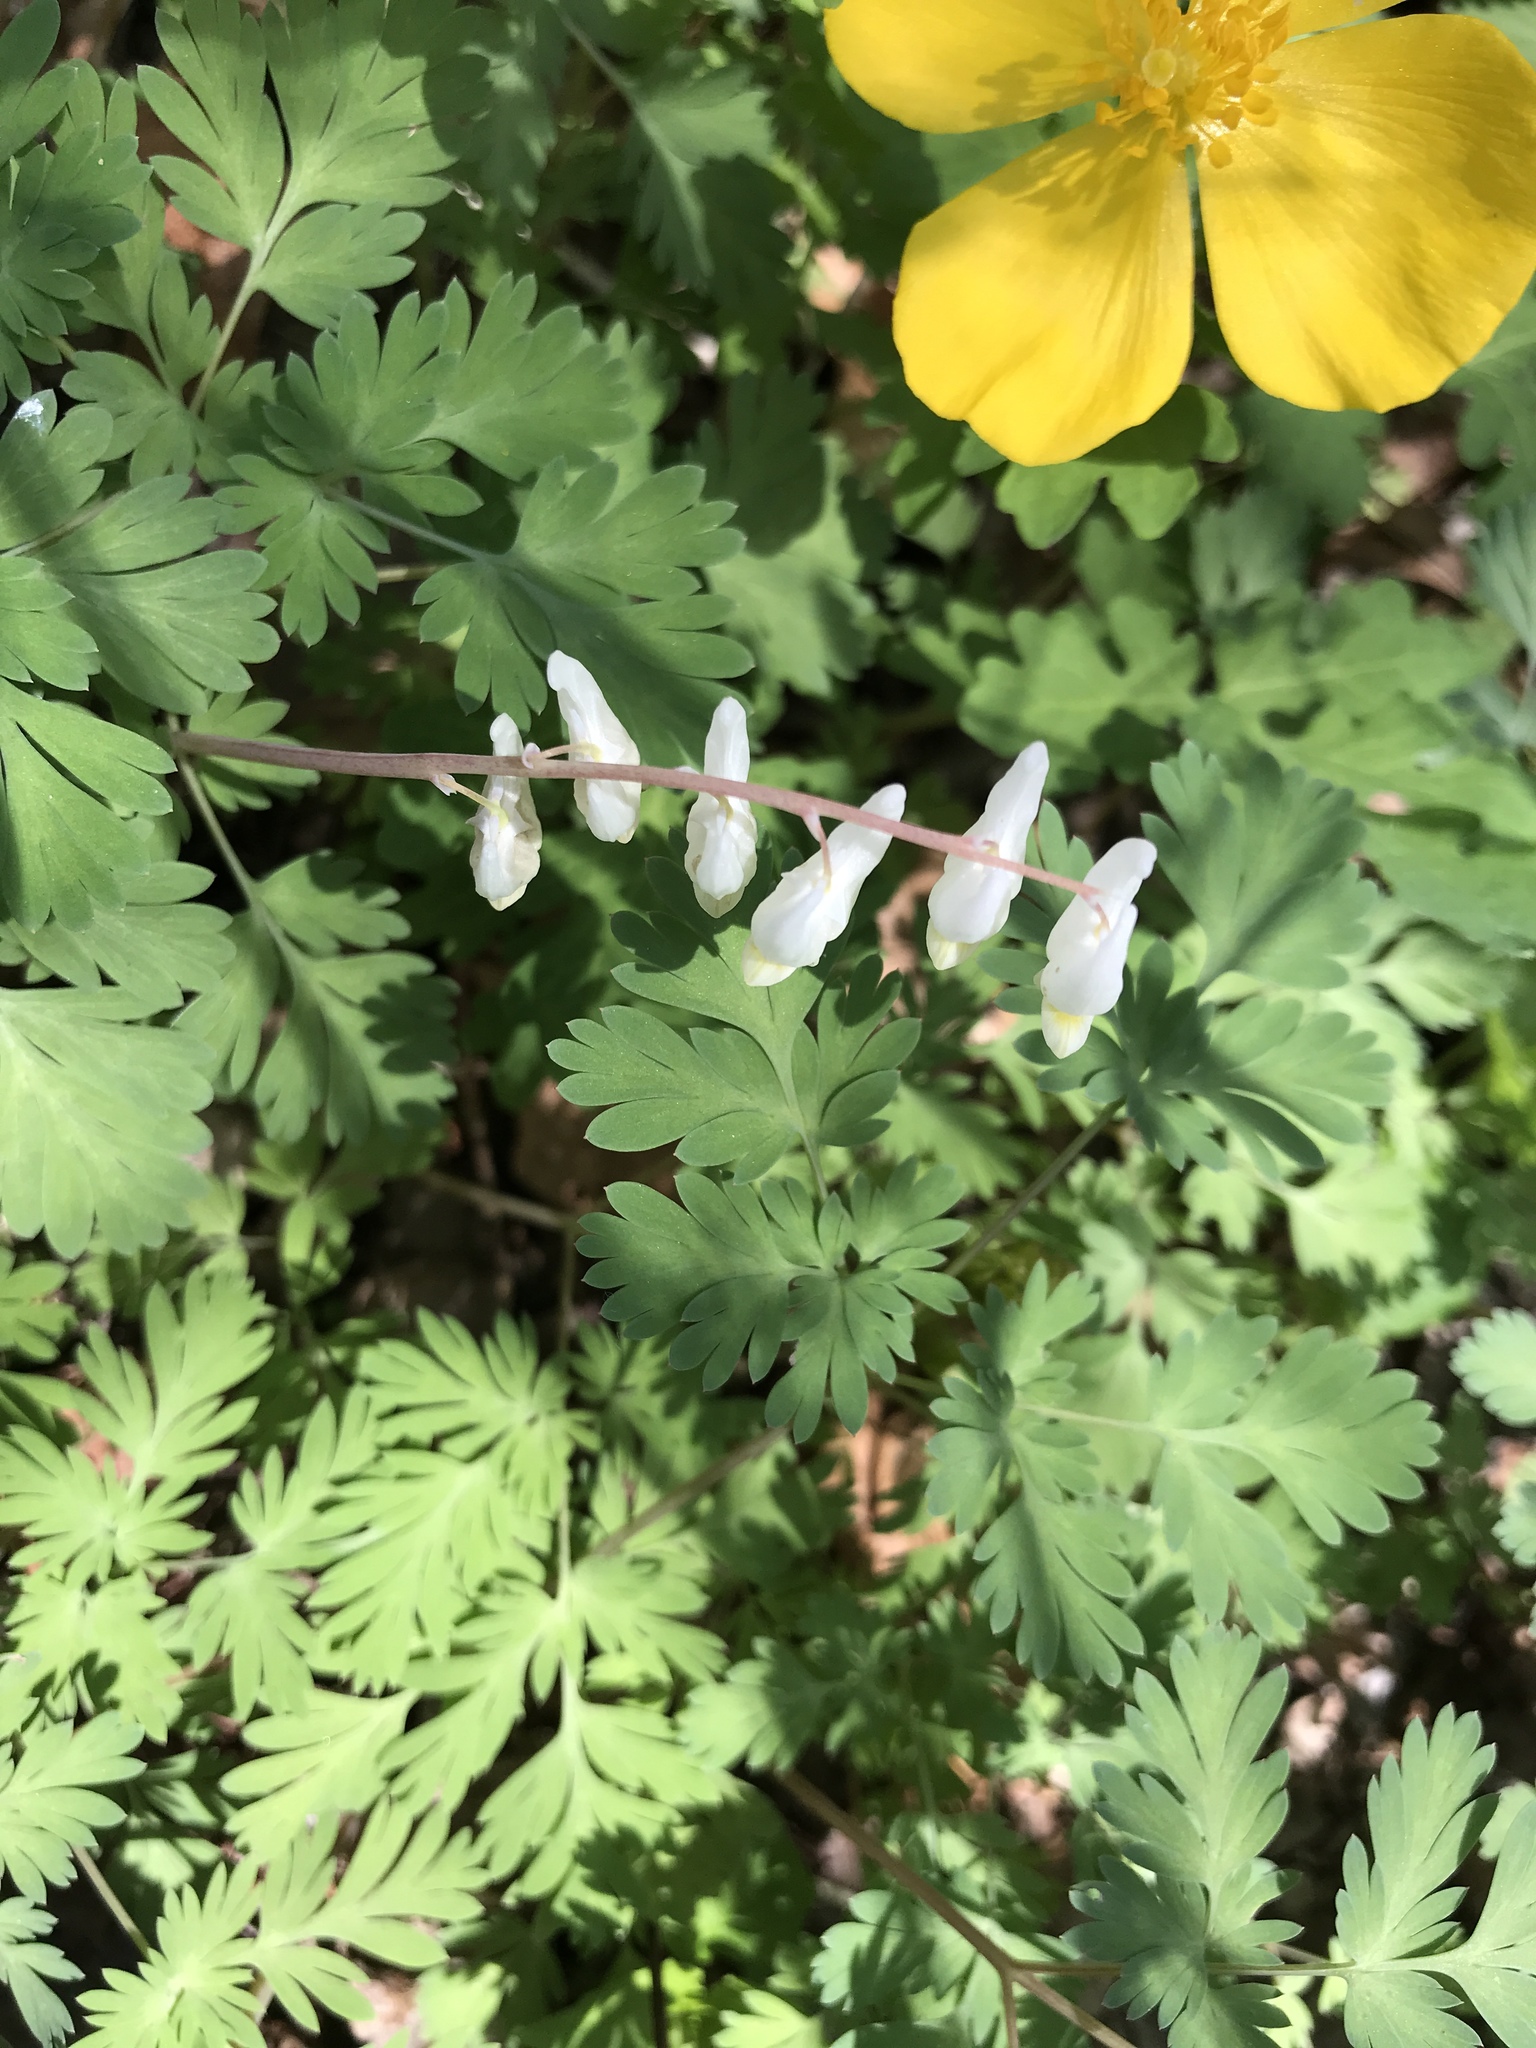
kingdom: Plantae
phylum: Tracheophyta
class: Magnoliopsida
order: Ranunculales
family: Papaveraceae
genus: Dicentra
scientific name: Dicentra cucullaria
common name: Dutchman's breeches
